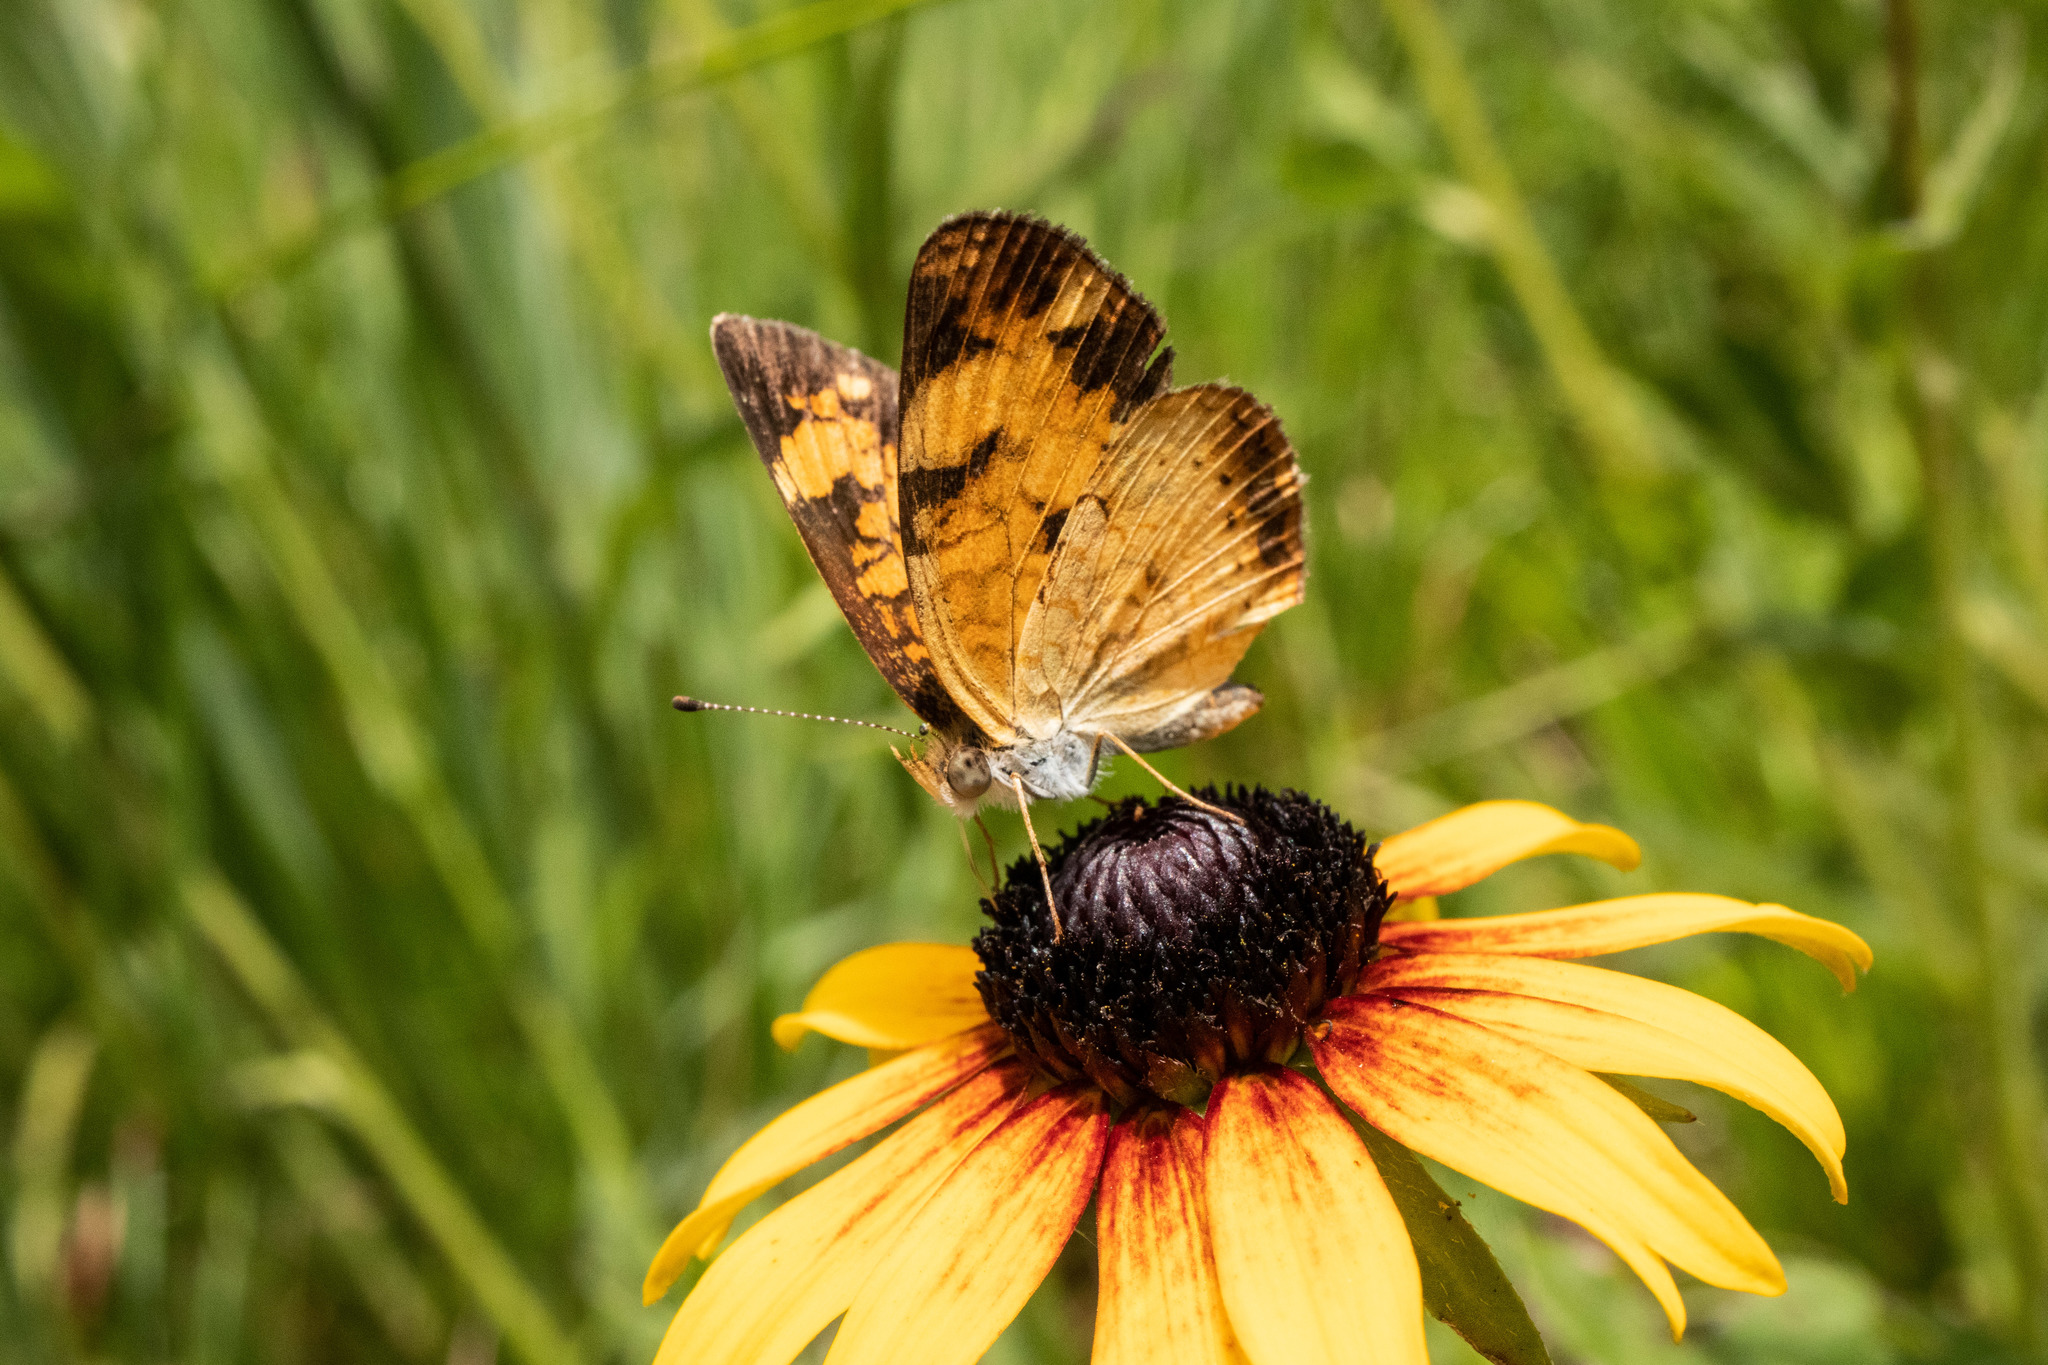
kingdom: Animalia
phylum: Arthropoda
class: Insecta
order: Lepidoptera
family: Nymphalidae
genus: Phyciodes
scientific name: Phyciodes tharos
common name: Pearl crescent
